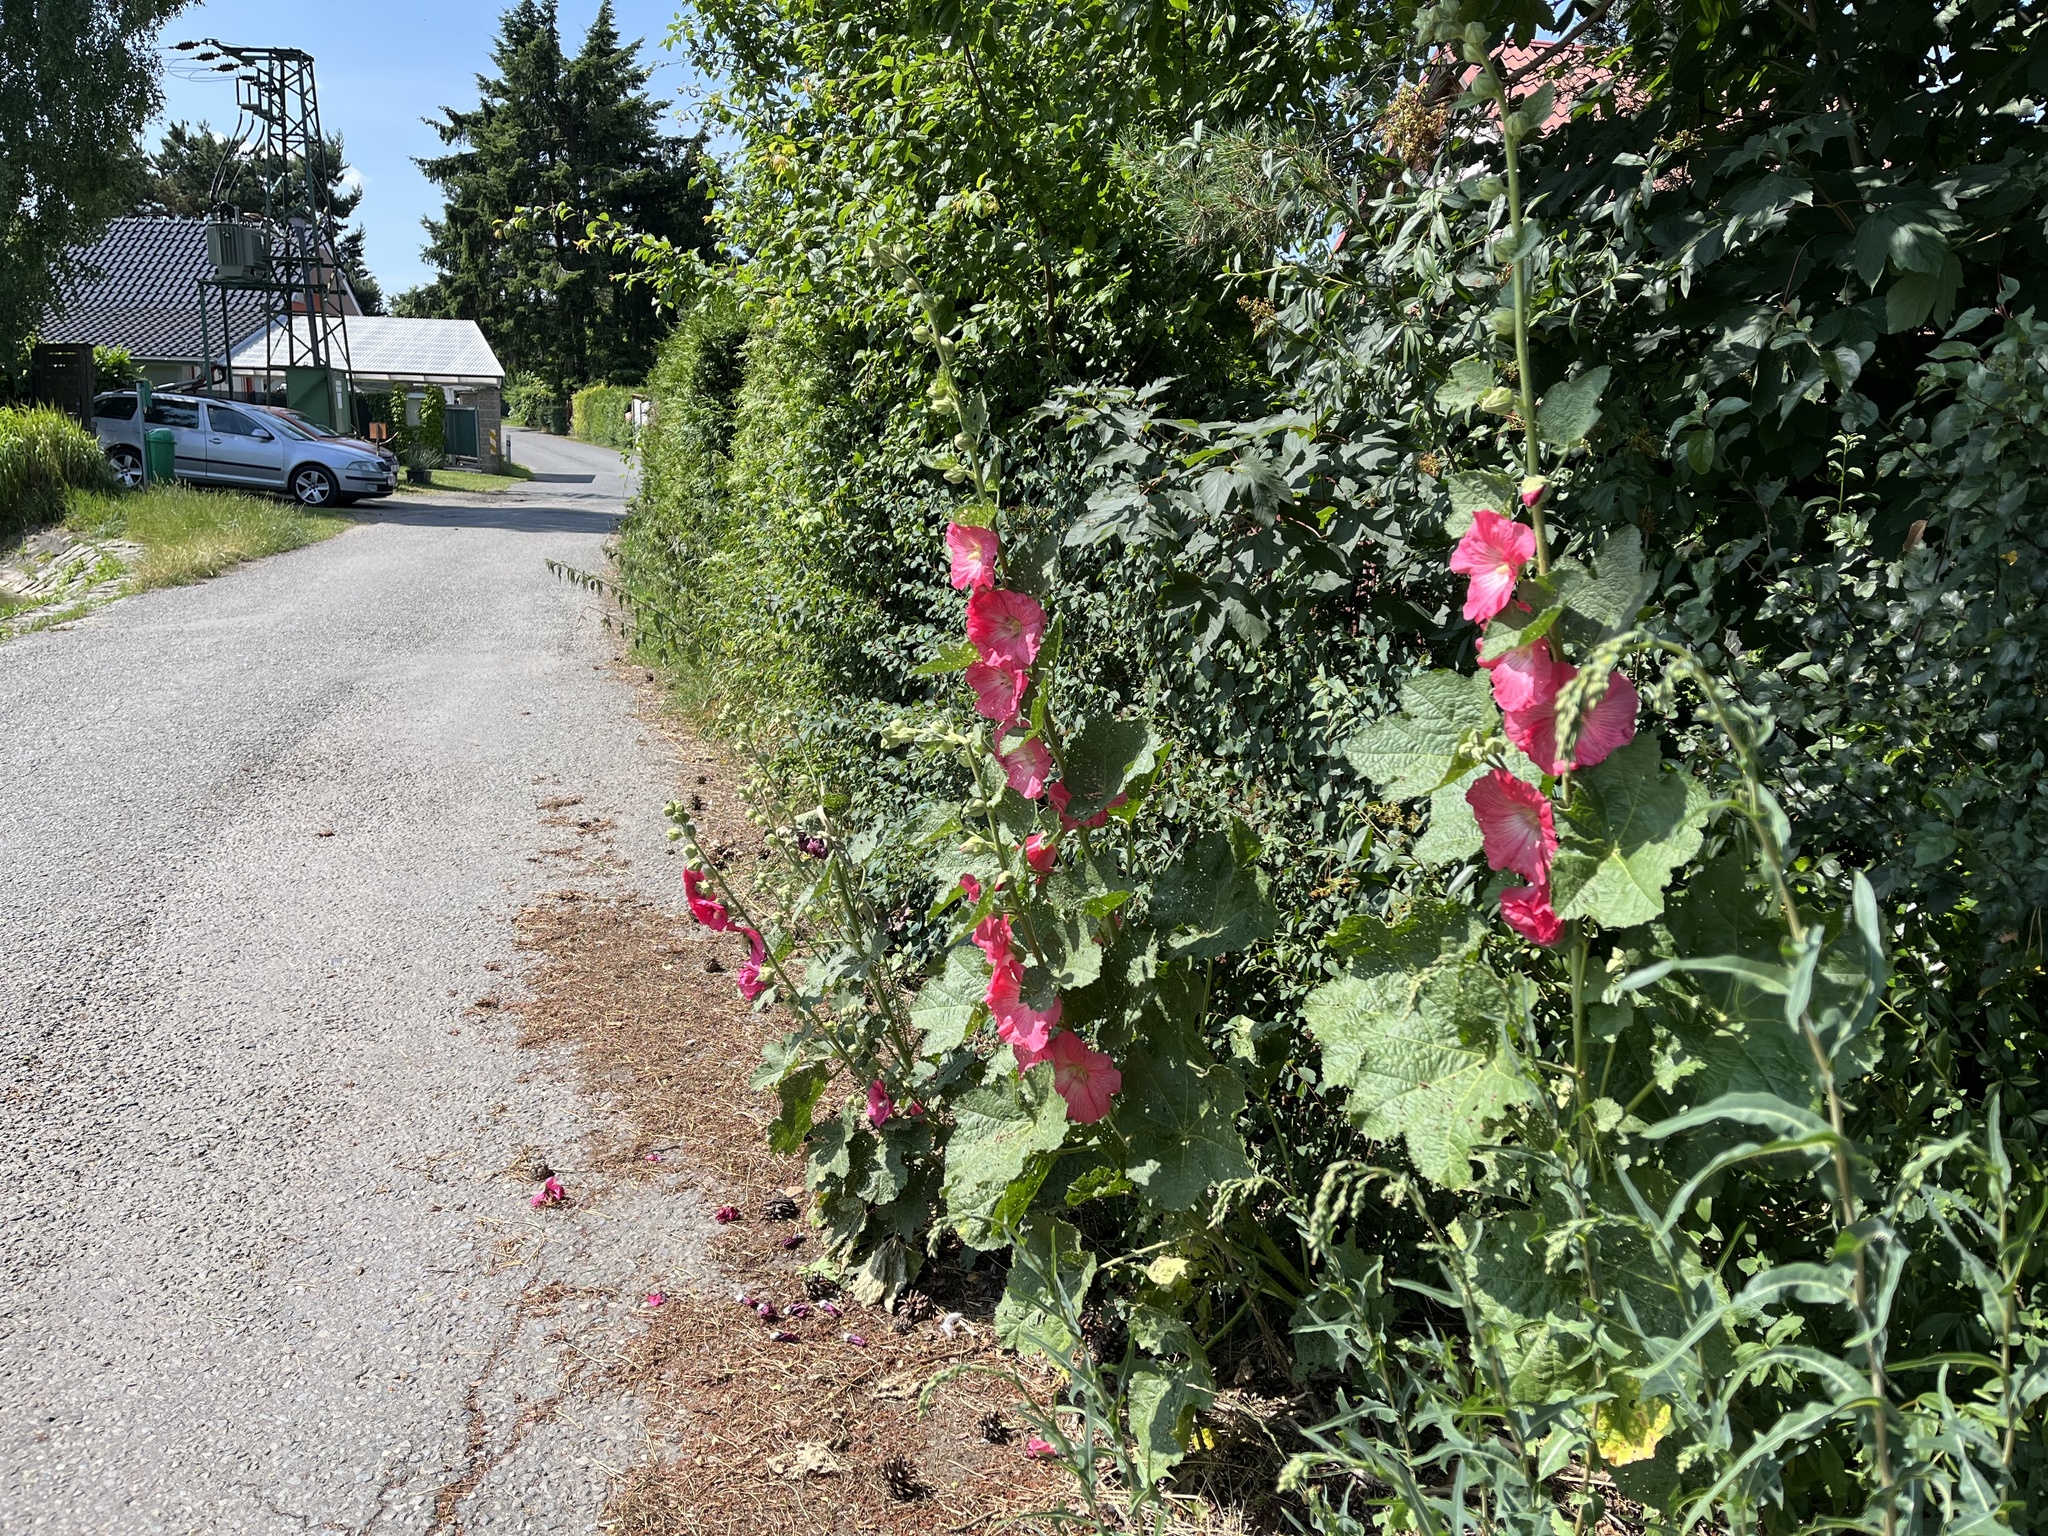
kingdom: Plantae
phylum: Tracheophyta
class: Magnoliopsida
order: Malvales
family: Malvaceae
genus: Alcea
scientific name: Alcea rosea
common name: Hollyhock
